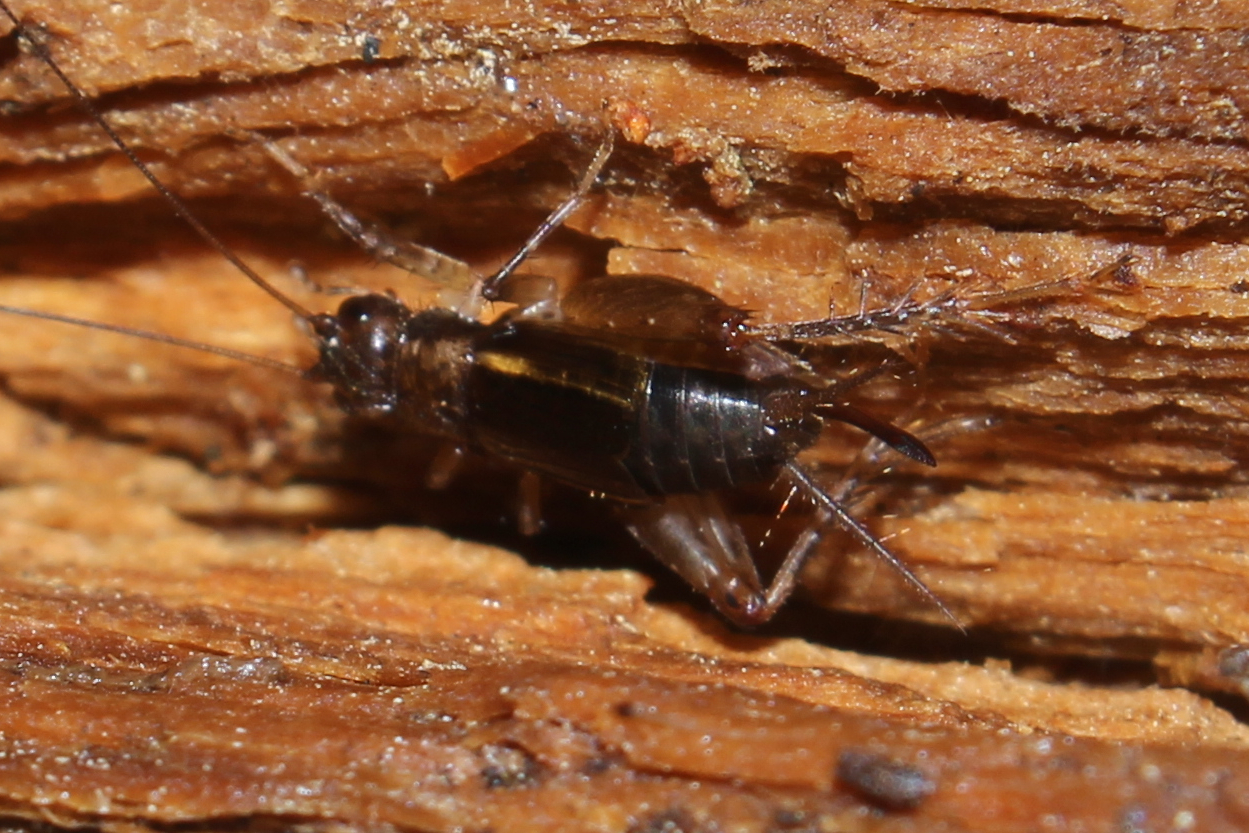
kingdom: Animalia
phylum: Arthropoda
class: Insecta
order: Orthoptera
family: Trigonidiidae
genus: Eunemobius
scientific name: Eunemobius carolinus
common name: Carolina ground cricket
